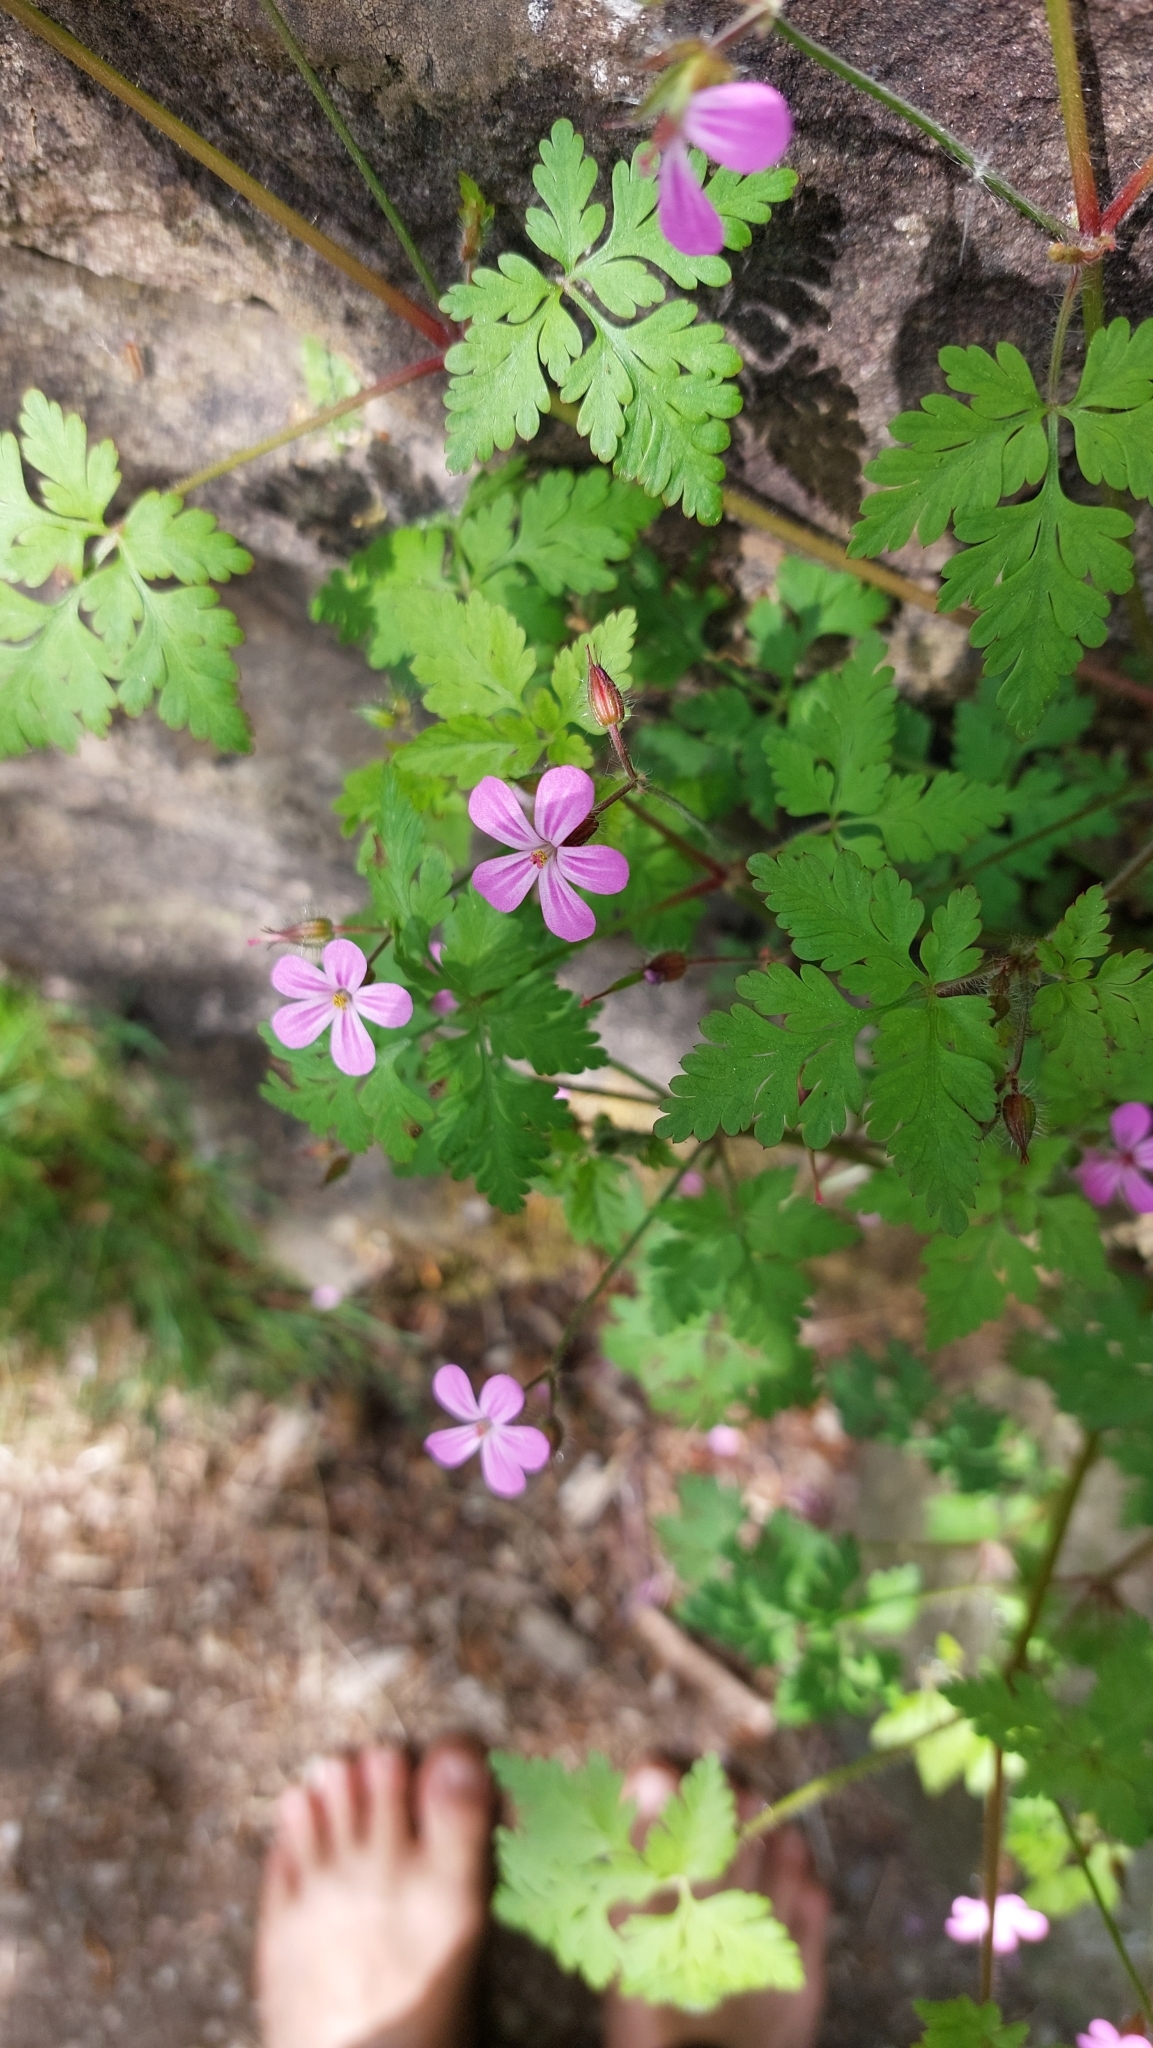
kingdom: Plantae
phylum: Tracheophyta
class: Magnoliopsida
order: Geraniales
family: Geraniaceae
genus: Geranium
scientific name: Geranium robertianum
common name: Herb-robert
